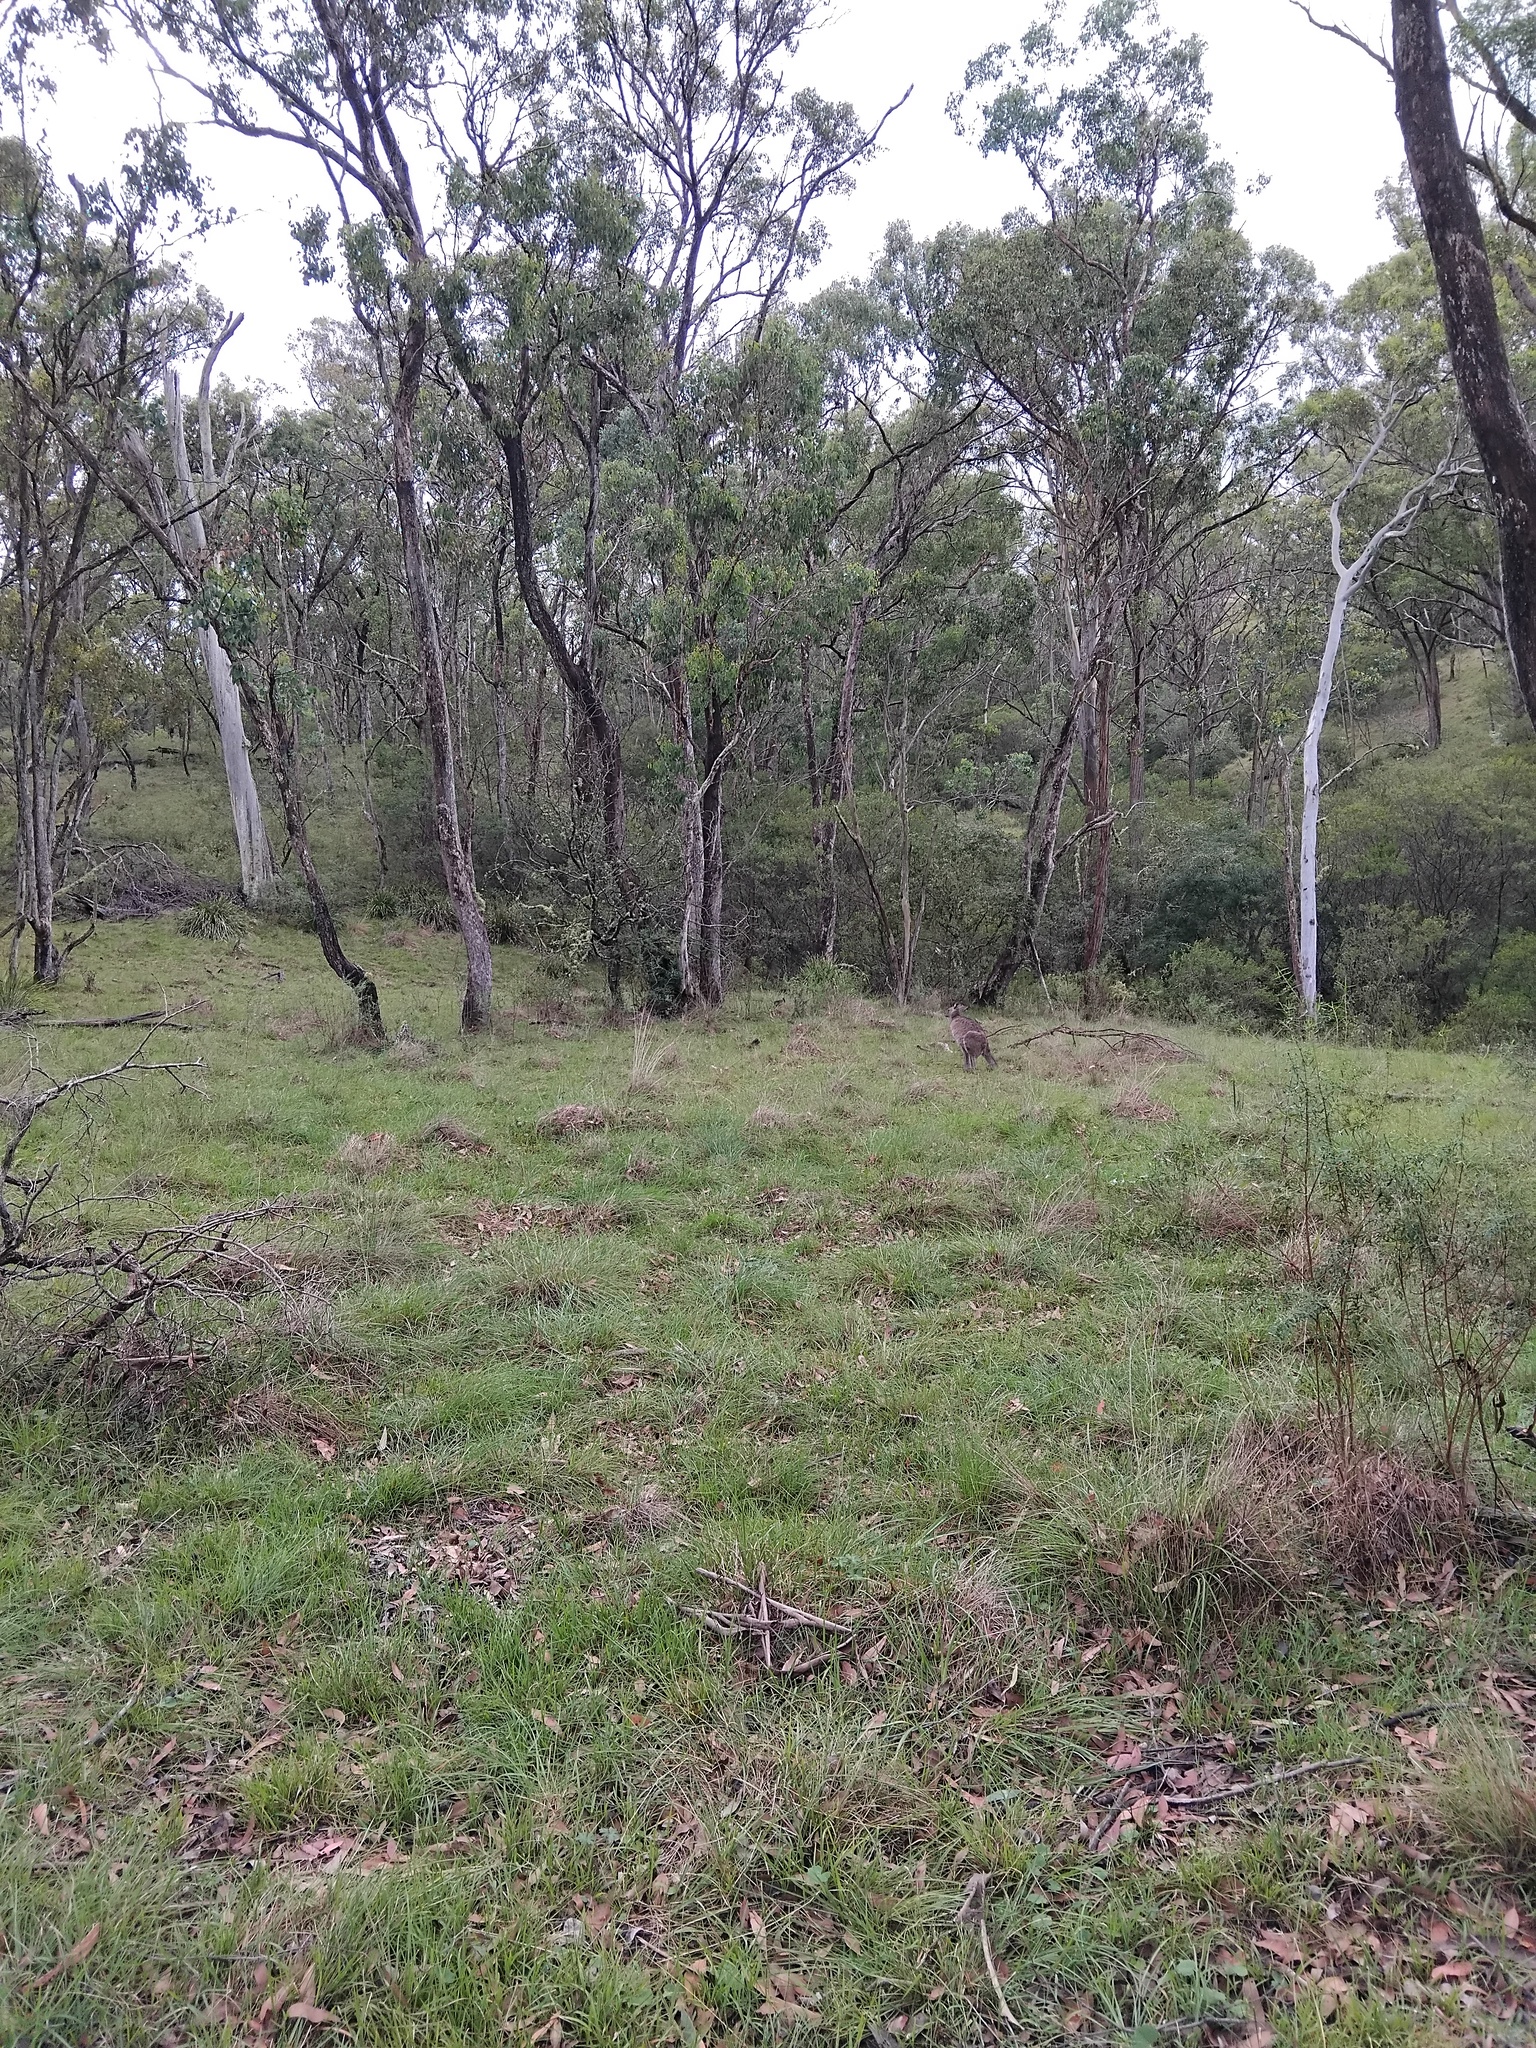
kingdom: Animalia
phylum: Chordata
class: Mammalia
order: Diprotodontia
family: Macropodidae
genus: Macropus
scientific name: Macropus giganteus
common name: Eastern grey kangaroo
